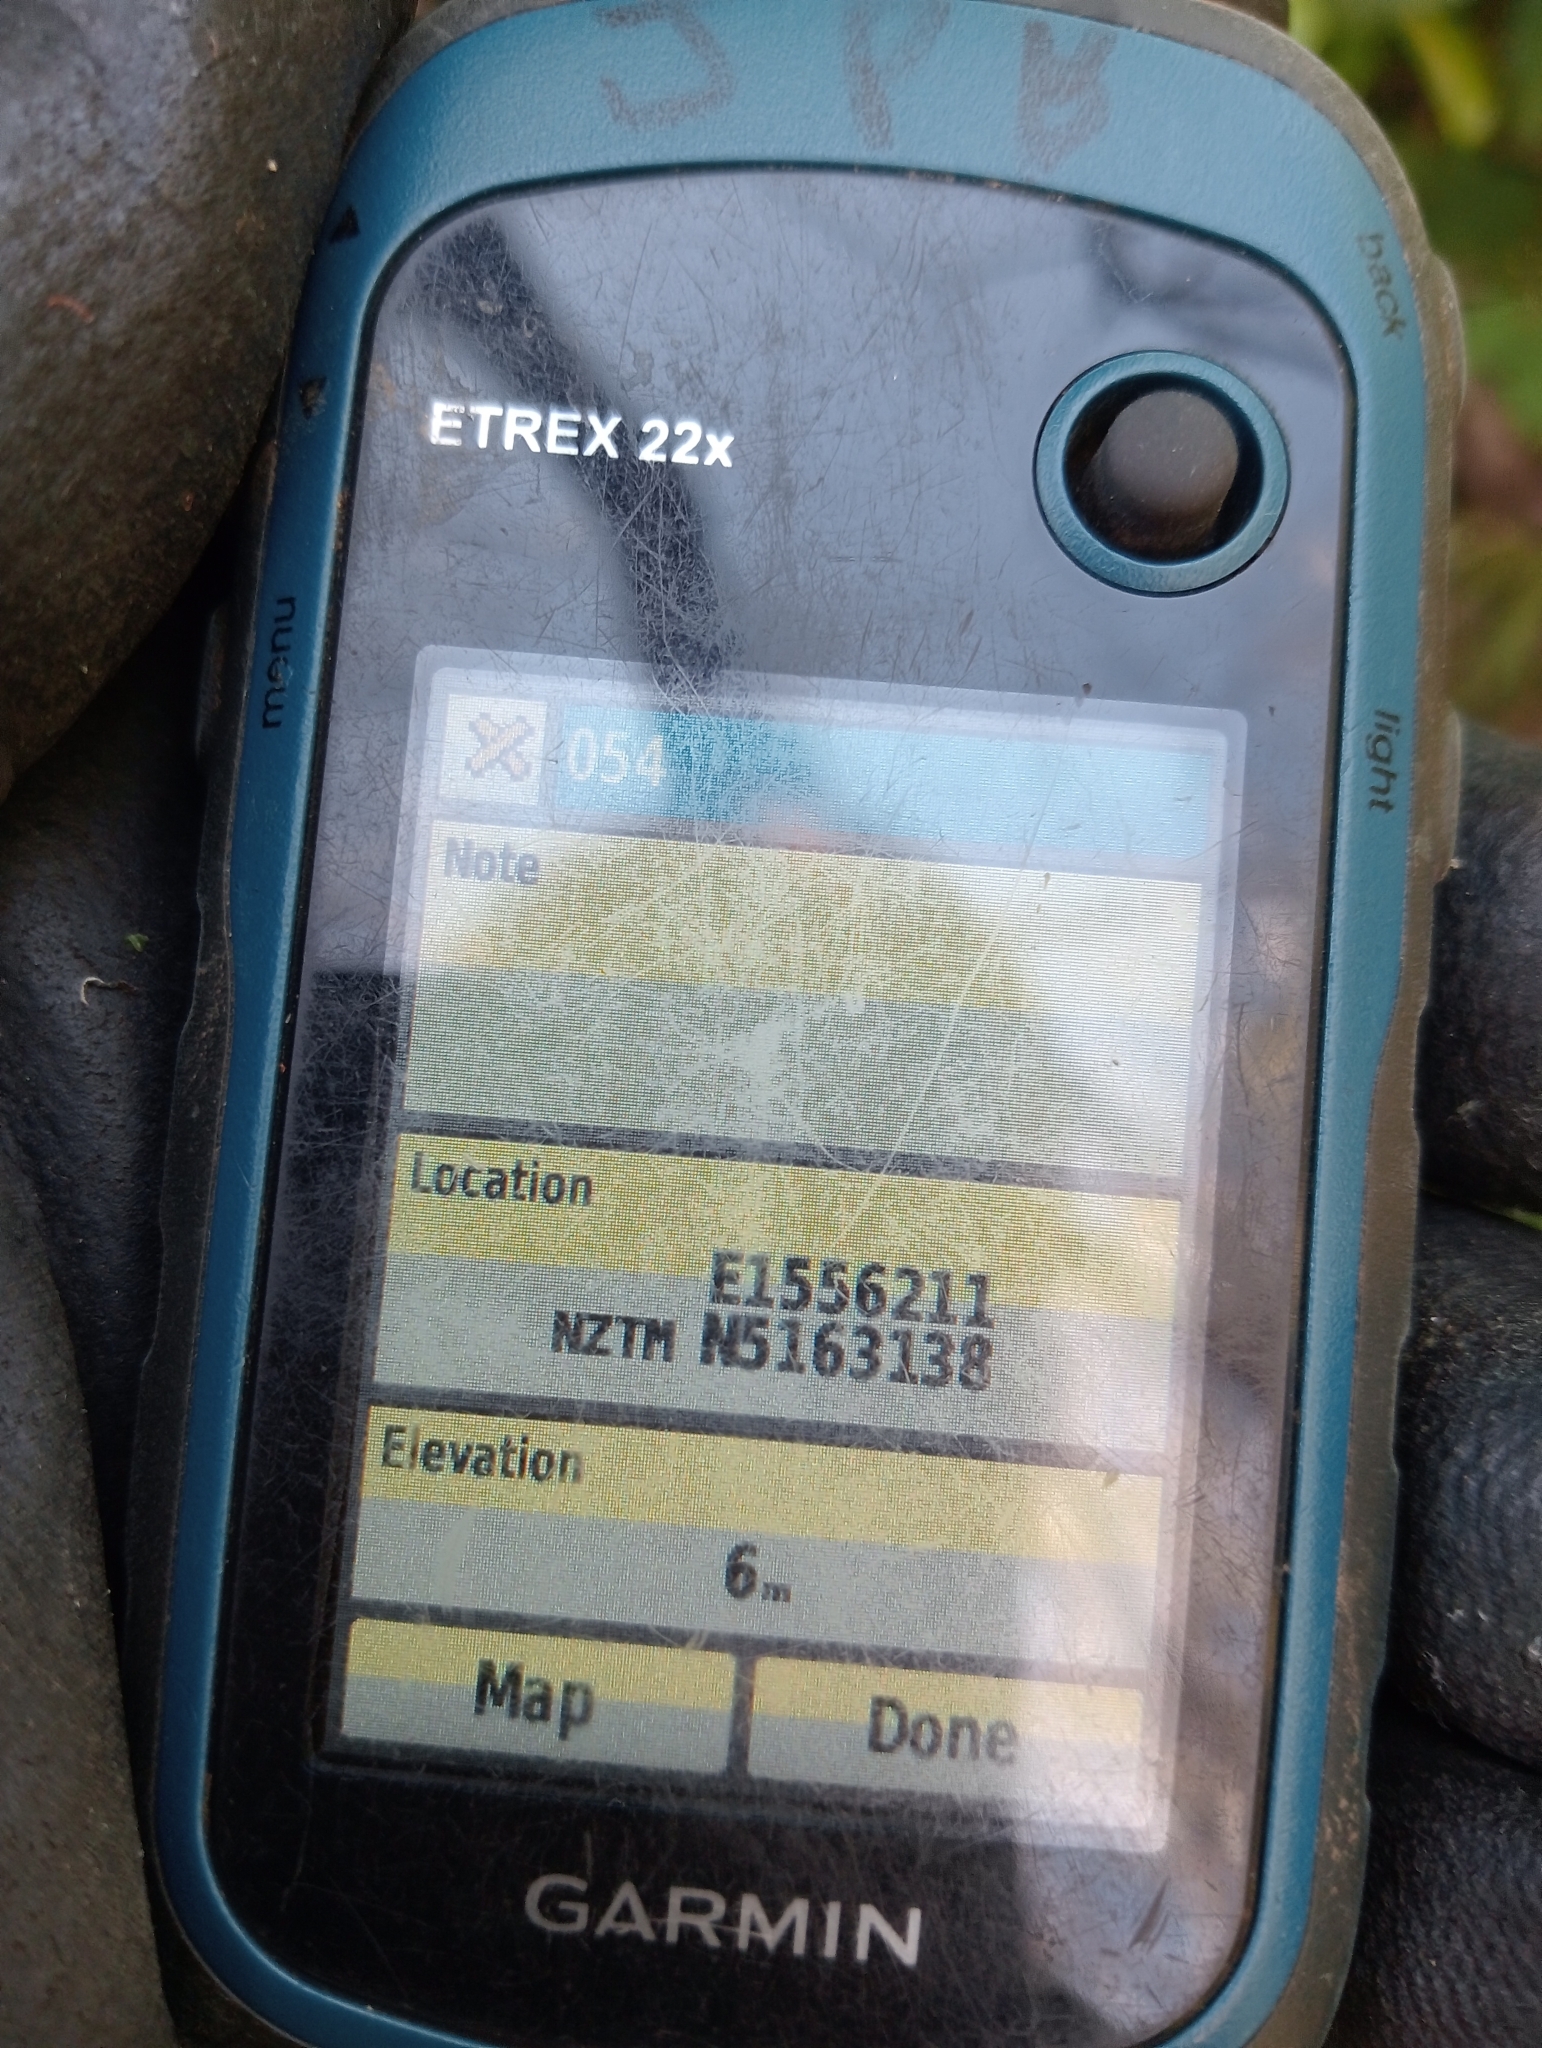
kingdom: Plantae
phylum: Tracheophyta
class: Polypodiopsida
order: Polypodiales
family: Blechnaceae
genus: Parablechnum
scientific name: Parablechnum novae-zelandiae
